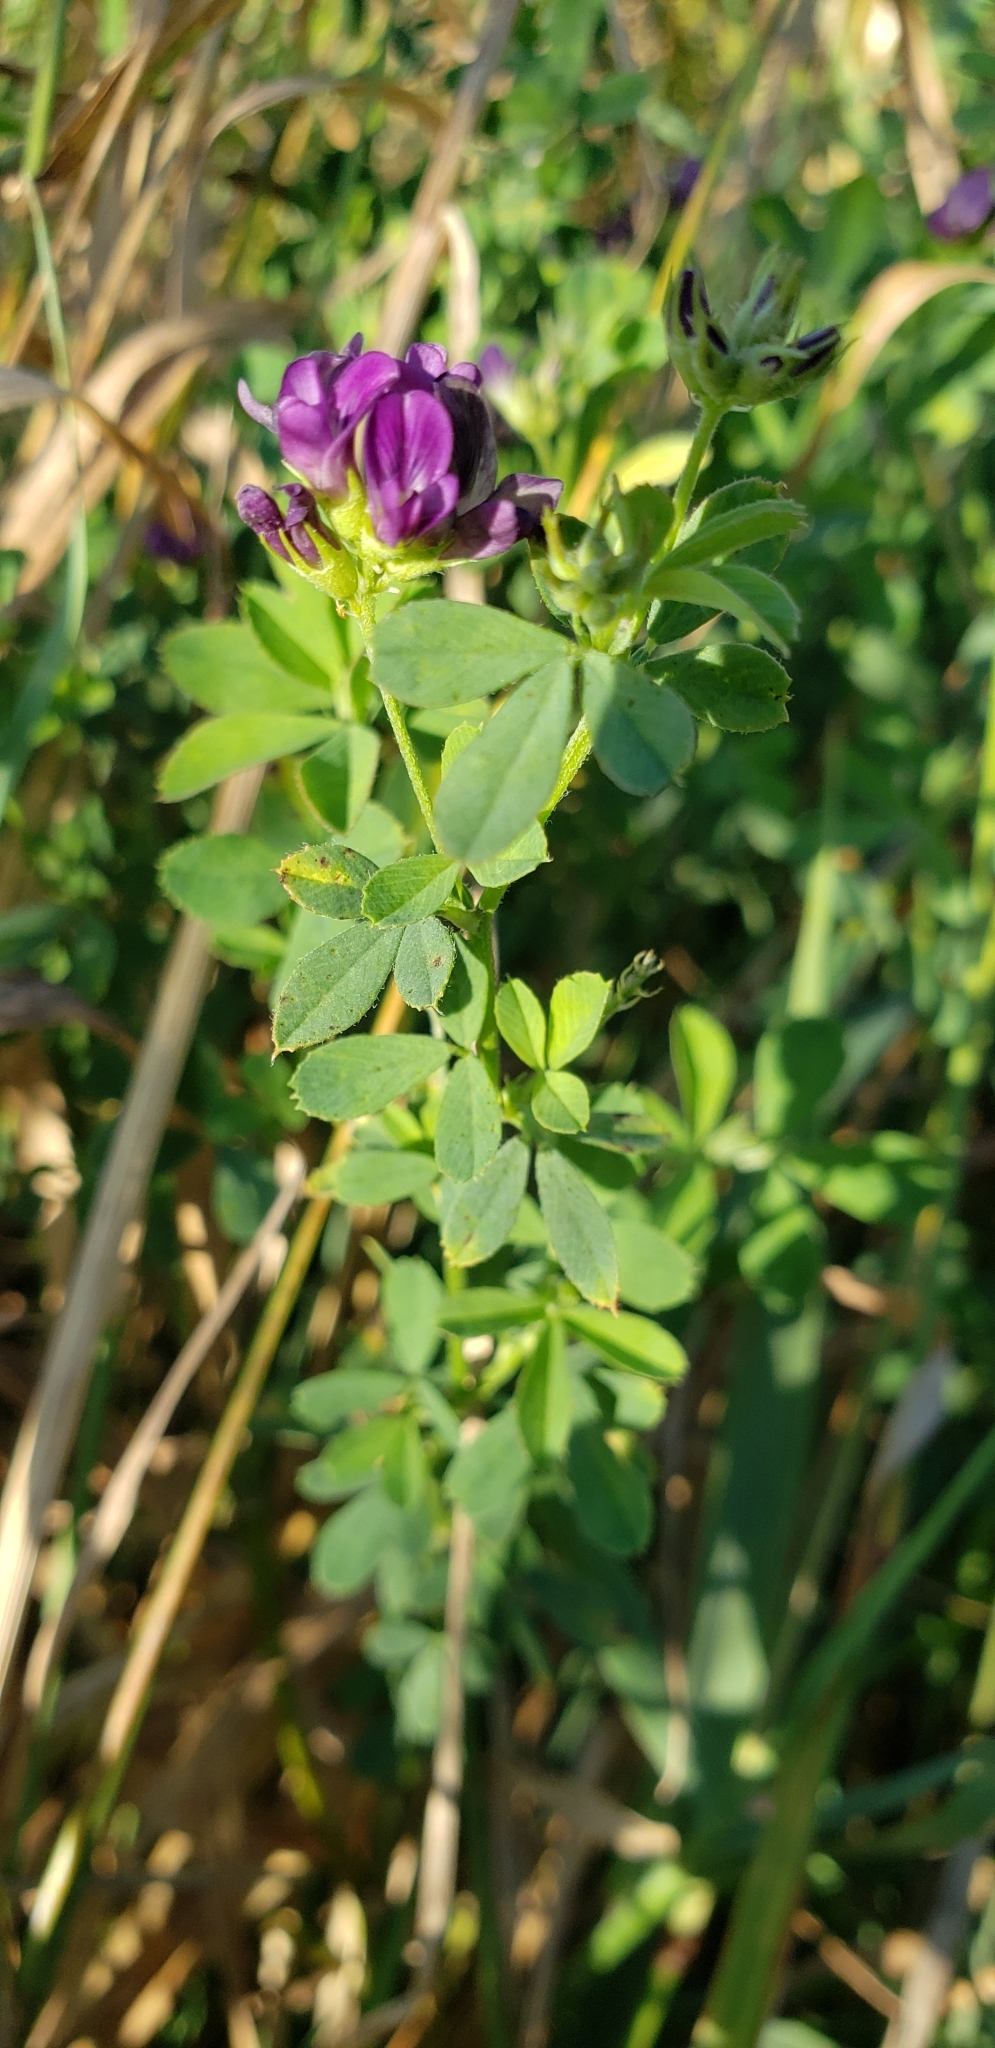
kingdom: Plantae
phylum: Tracheophyta
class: Magnoliopsida
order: Fabales
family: Fabaceae
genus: Medicago
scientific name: Medicago sativa
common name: Alfalfa
